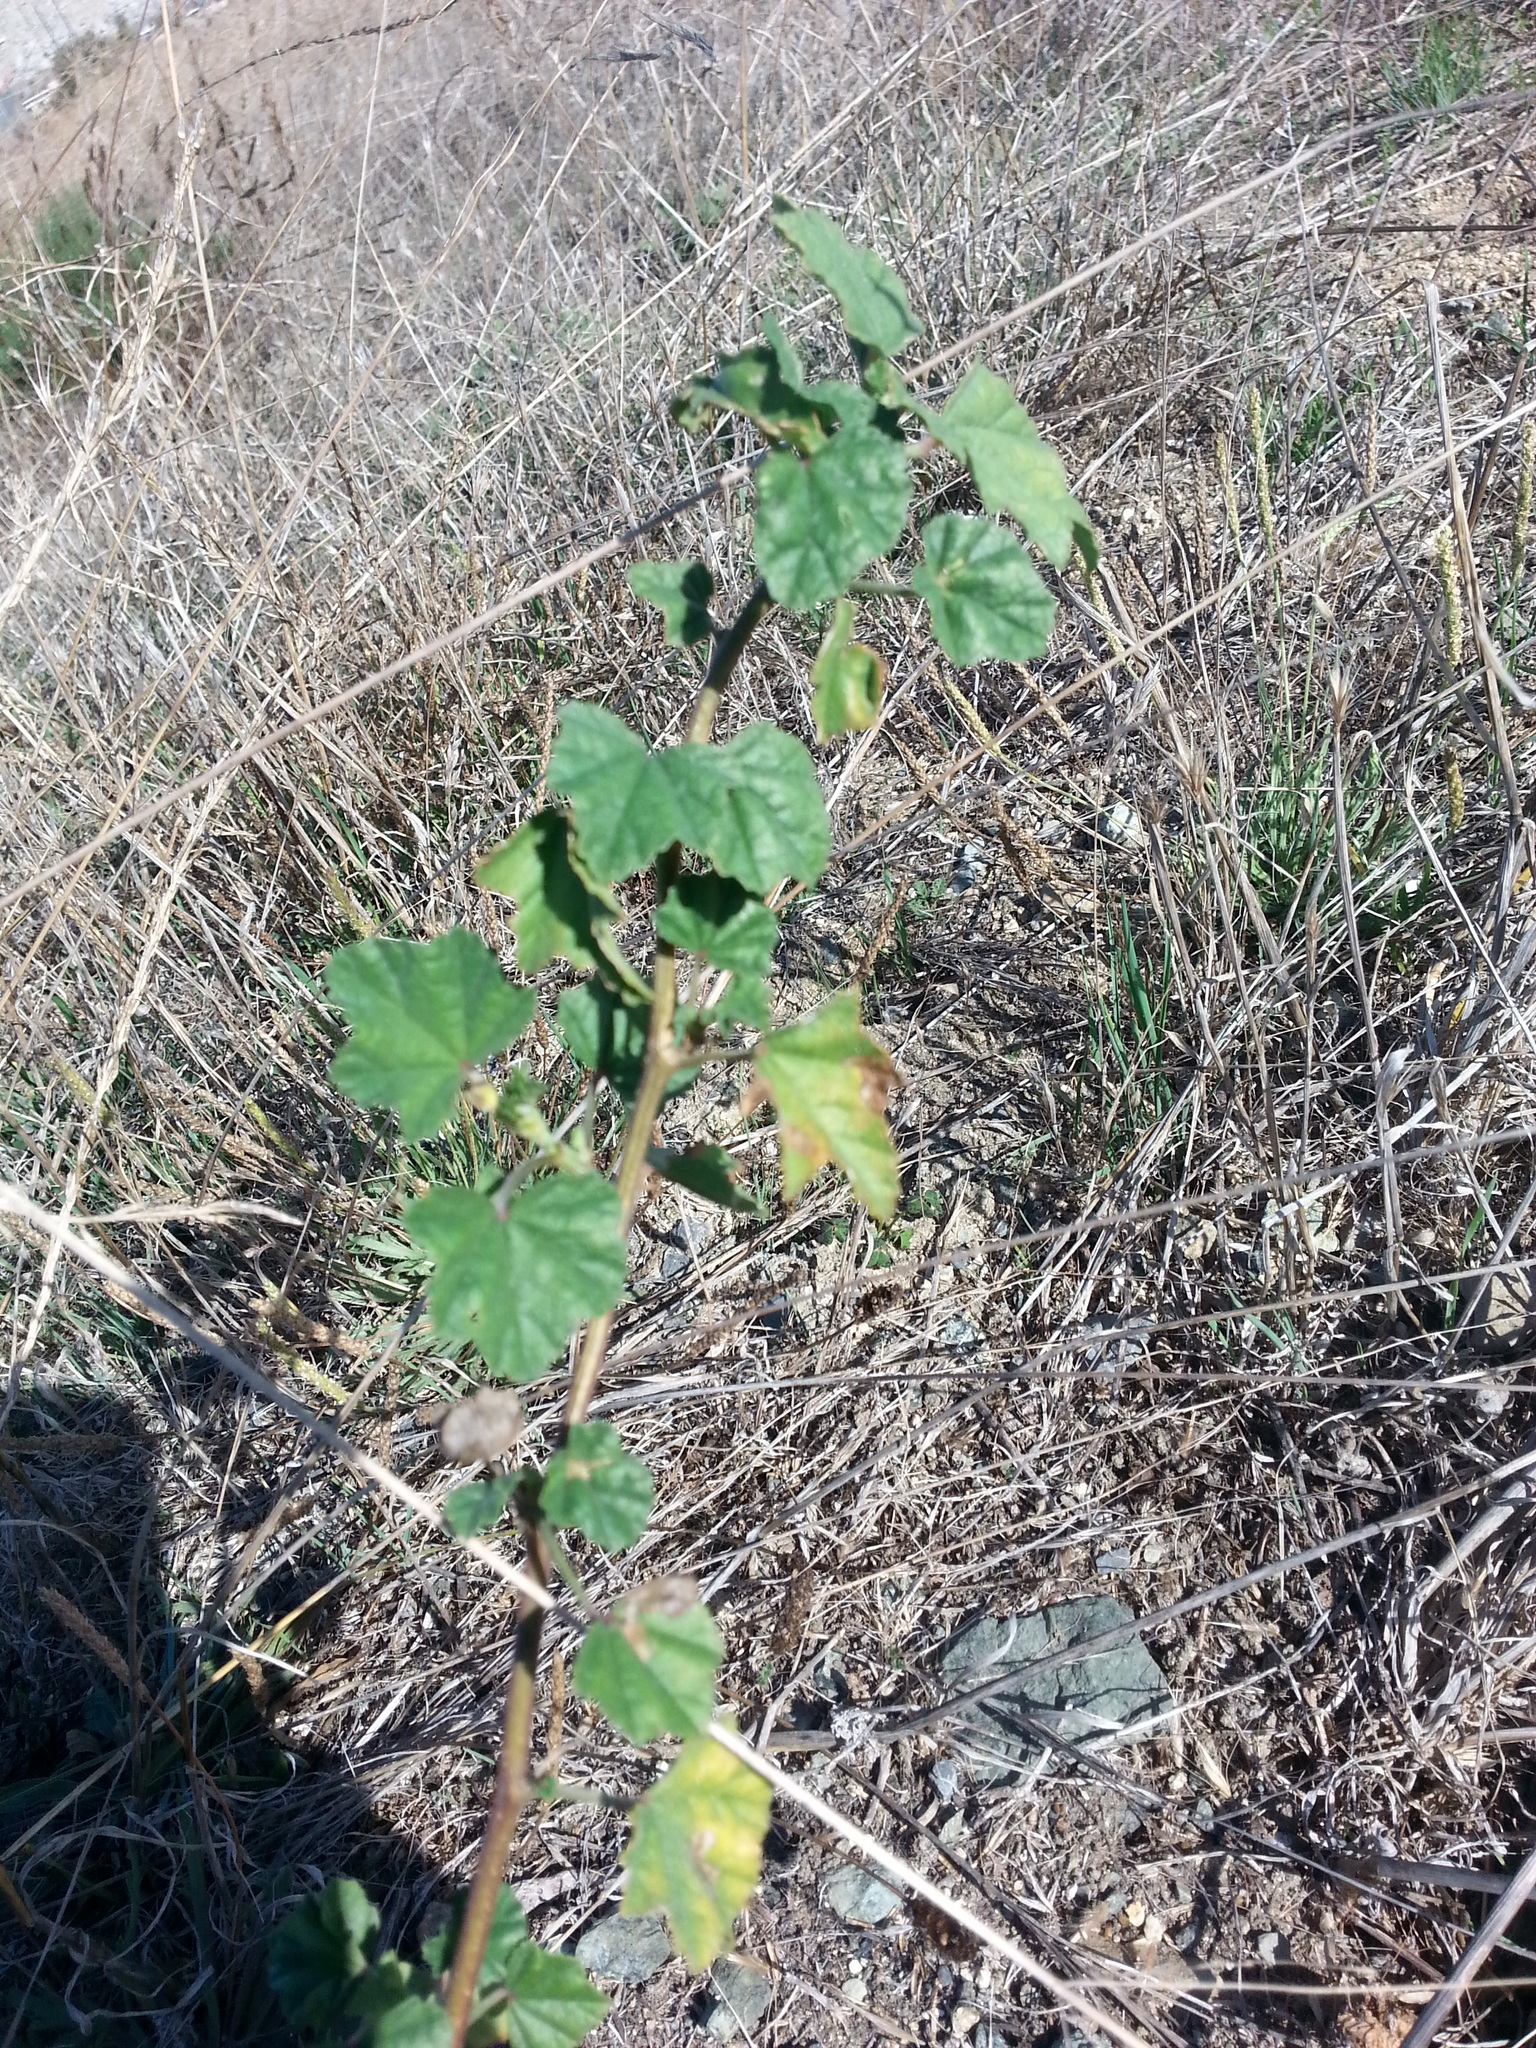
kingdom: Plantae
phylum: Tracheophyta
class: Magnoliopsida
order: Malvales
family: Malvaceae
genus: Malva
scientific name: Malva
